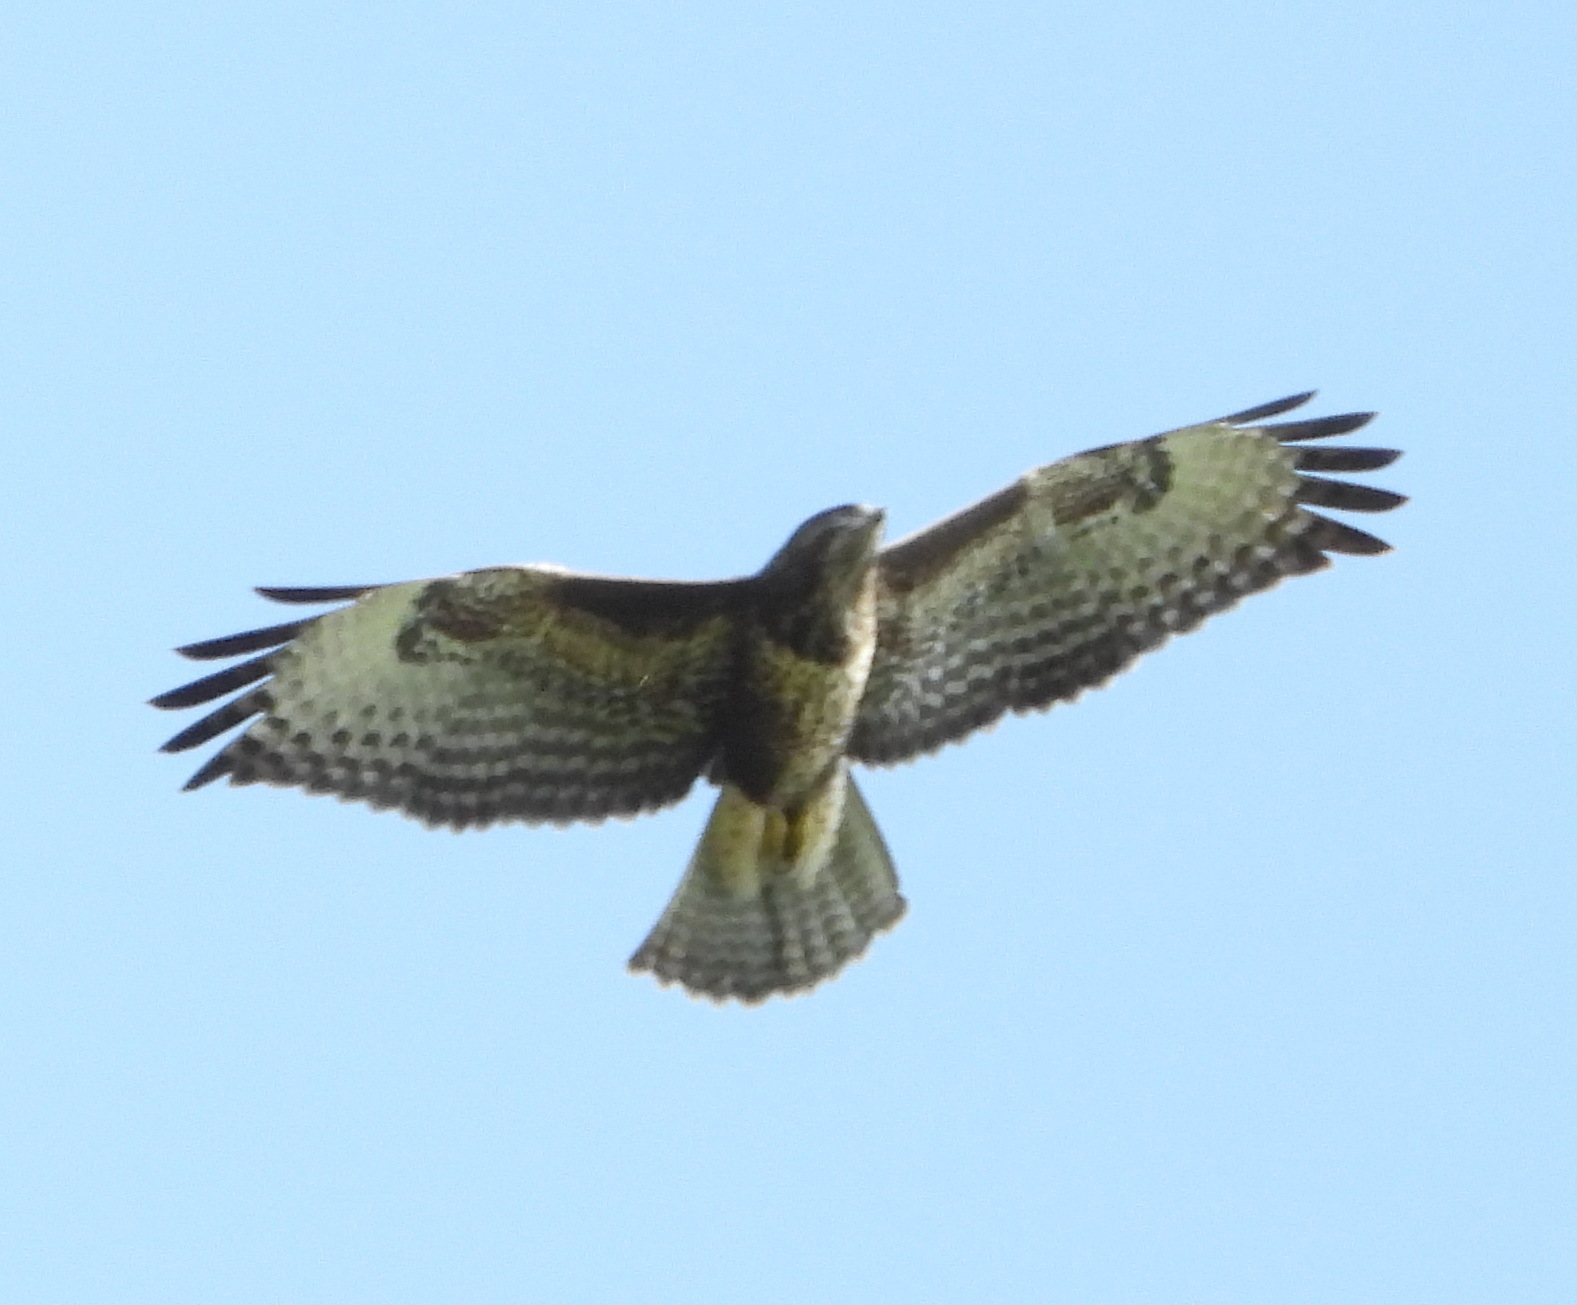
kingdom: Animalia
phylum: Chordata
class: Aves
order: Accipitriformes
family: Accipitridae
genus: Buteo
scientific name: Buteo buteo
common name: Common buzzard
